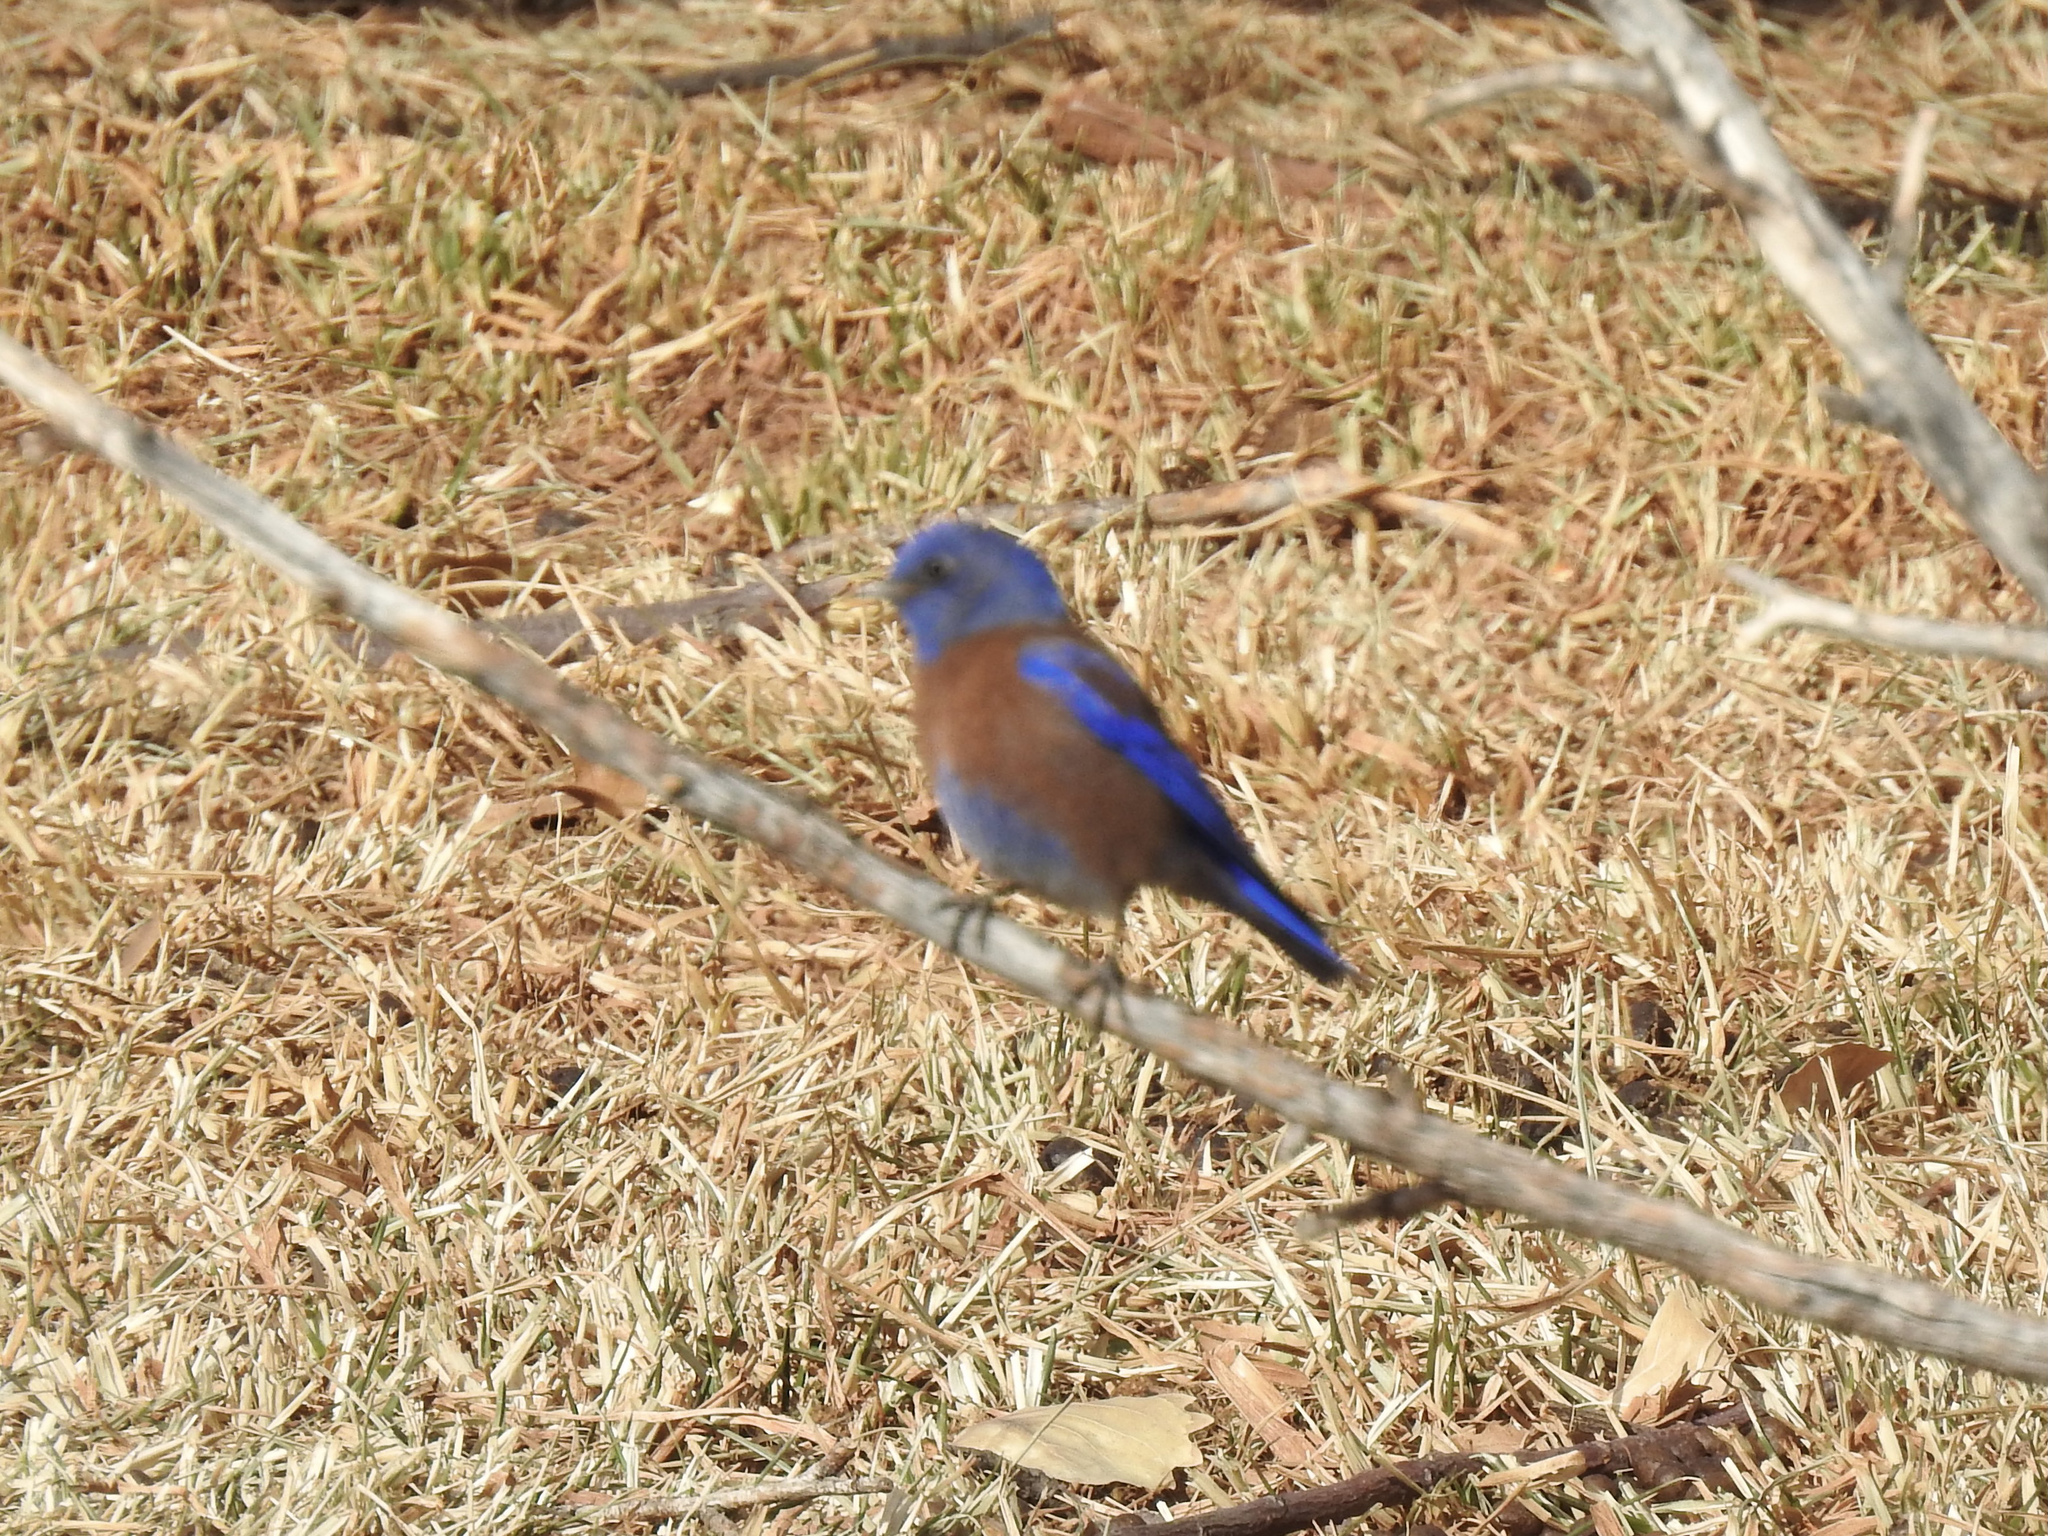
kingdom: Animalia
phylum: Chordata
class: Aves
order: Passeriformes
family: Turdidae
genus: Sialia
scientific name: Sialia mexicana
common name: Western bluebird
